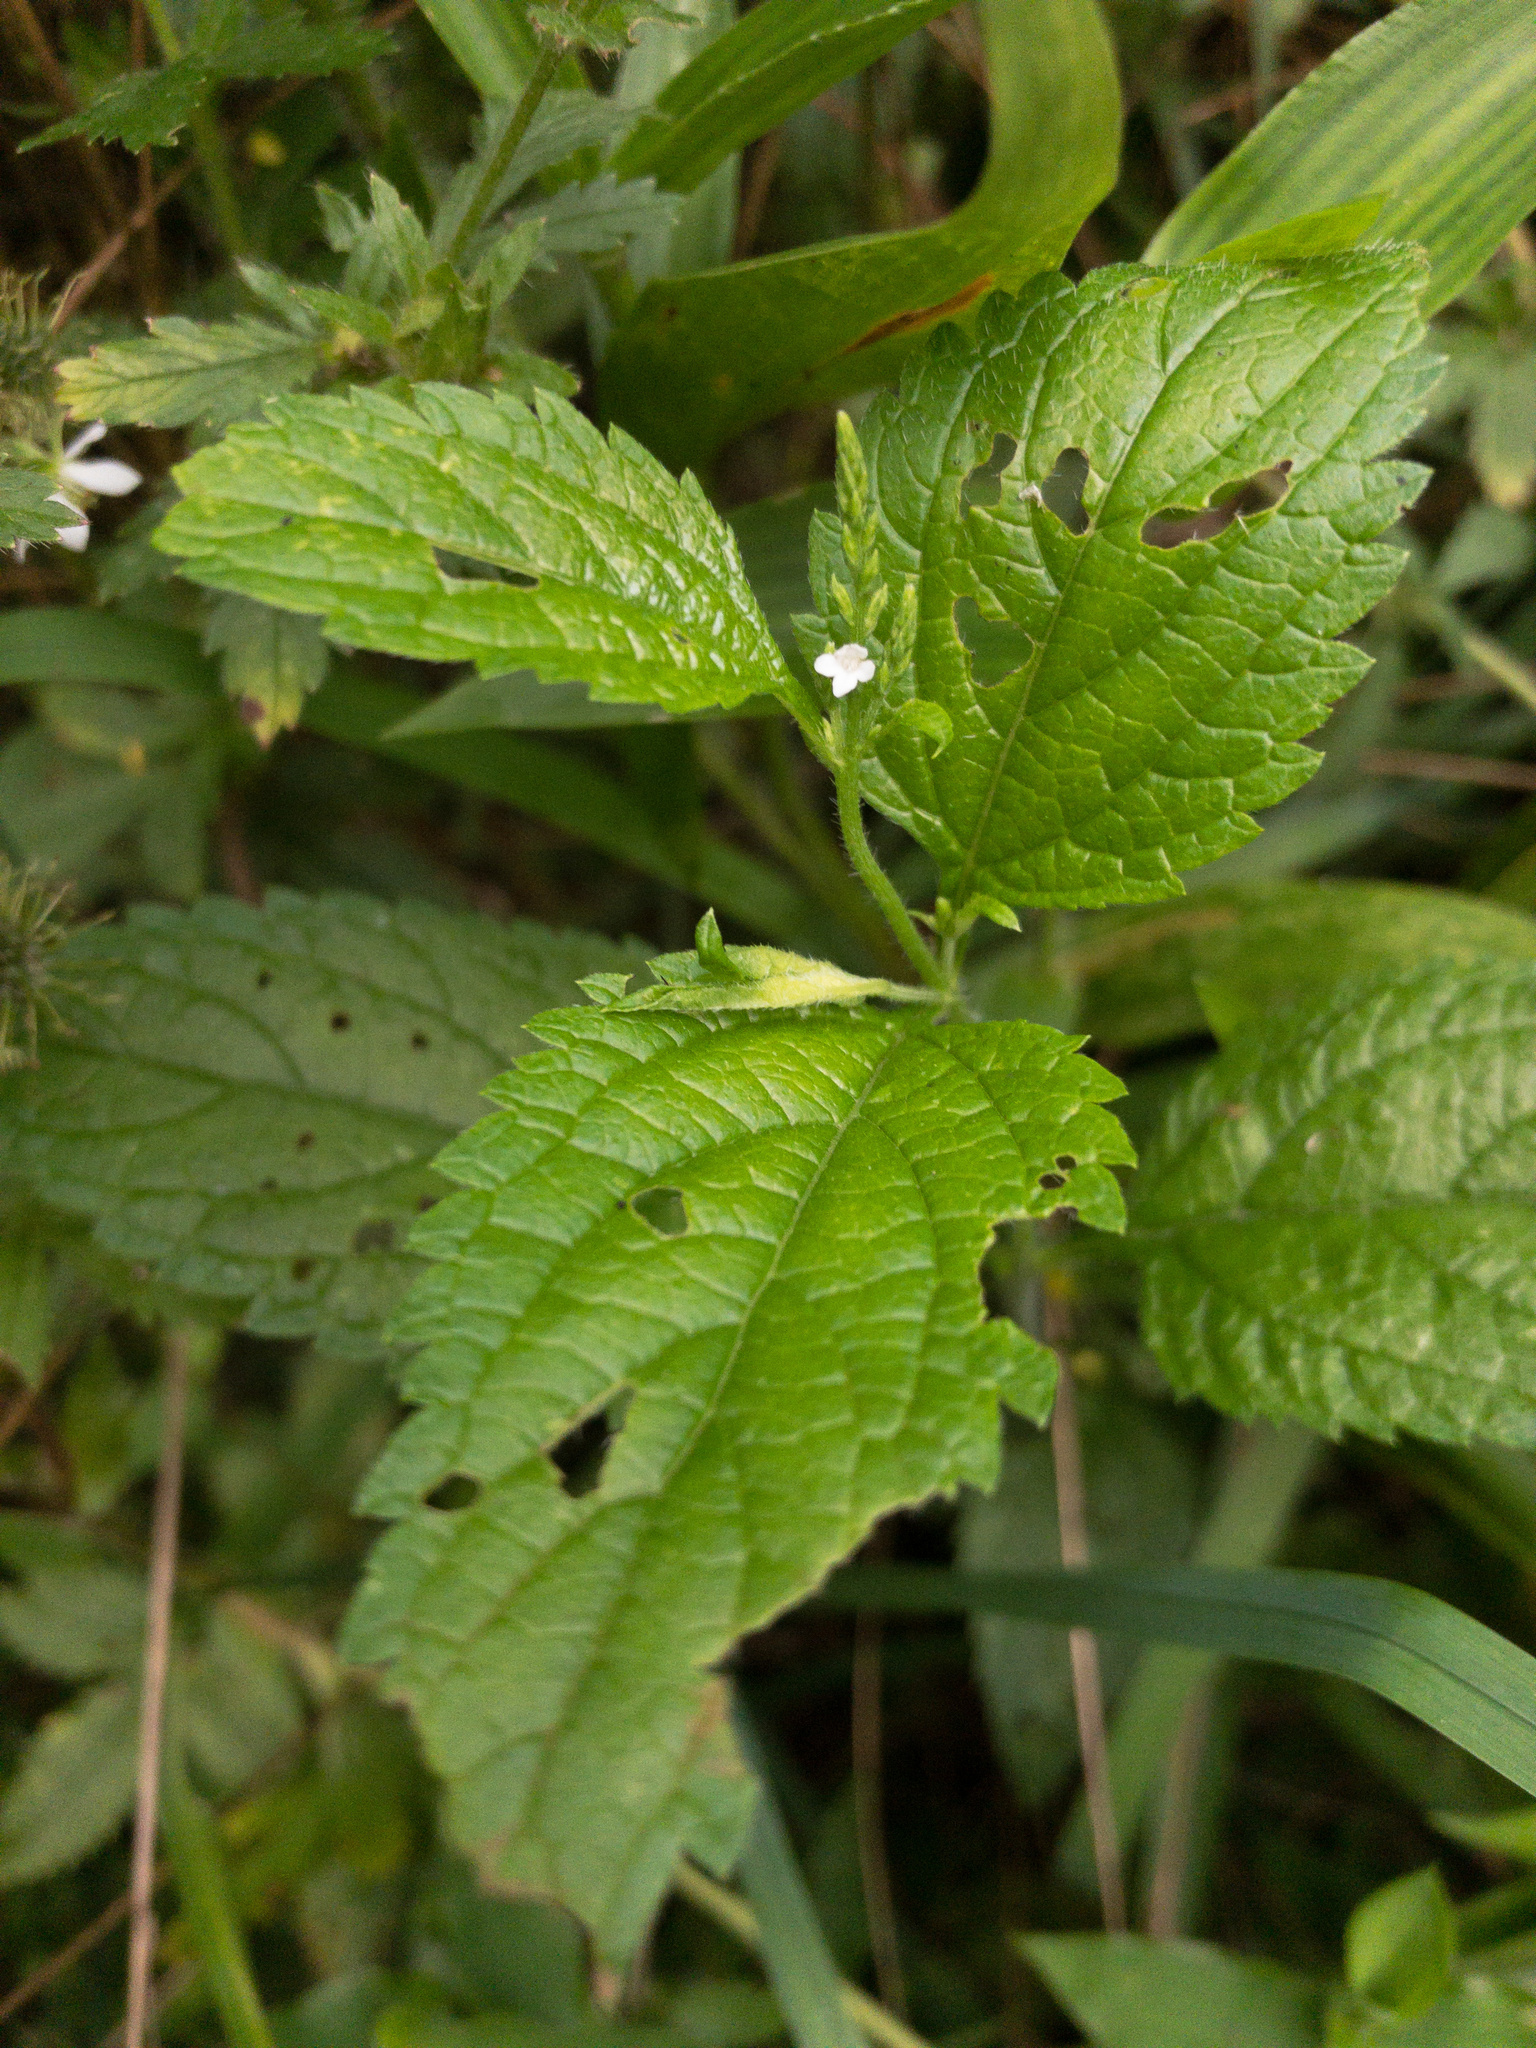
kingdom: Plantae
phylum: Tracheophyta
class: Magnoliopsida
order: Lamiales
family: Verbenaceae
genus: Verbena
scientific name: Verbena urticifolia
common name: Nettle-leaved vervain
